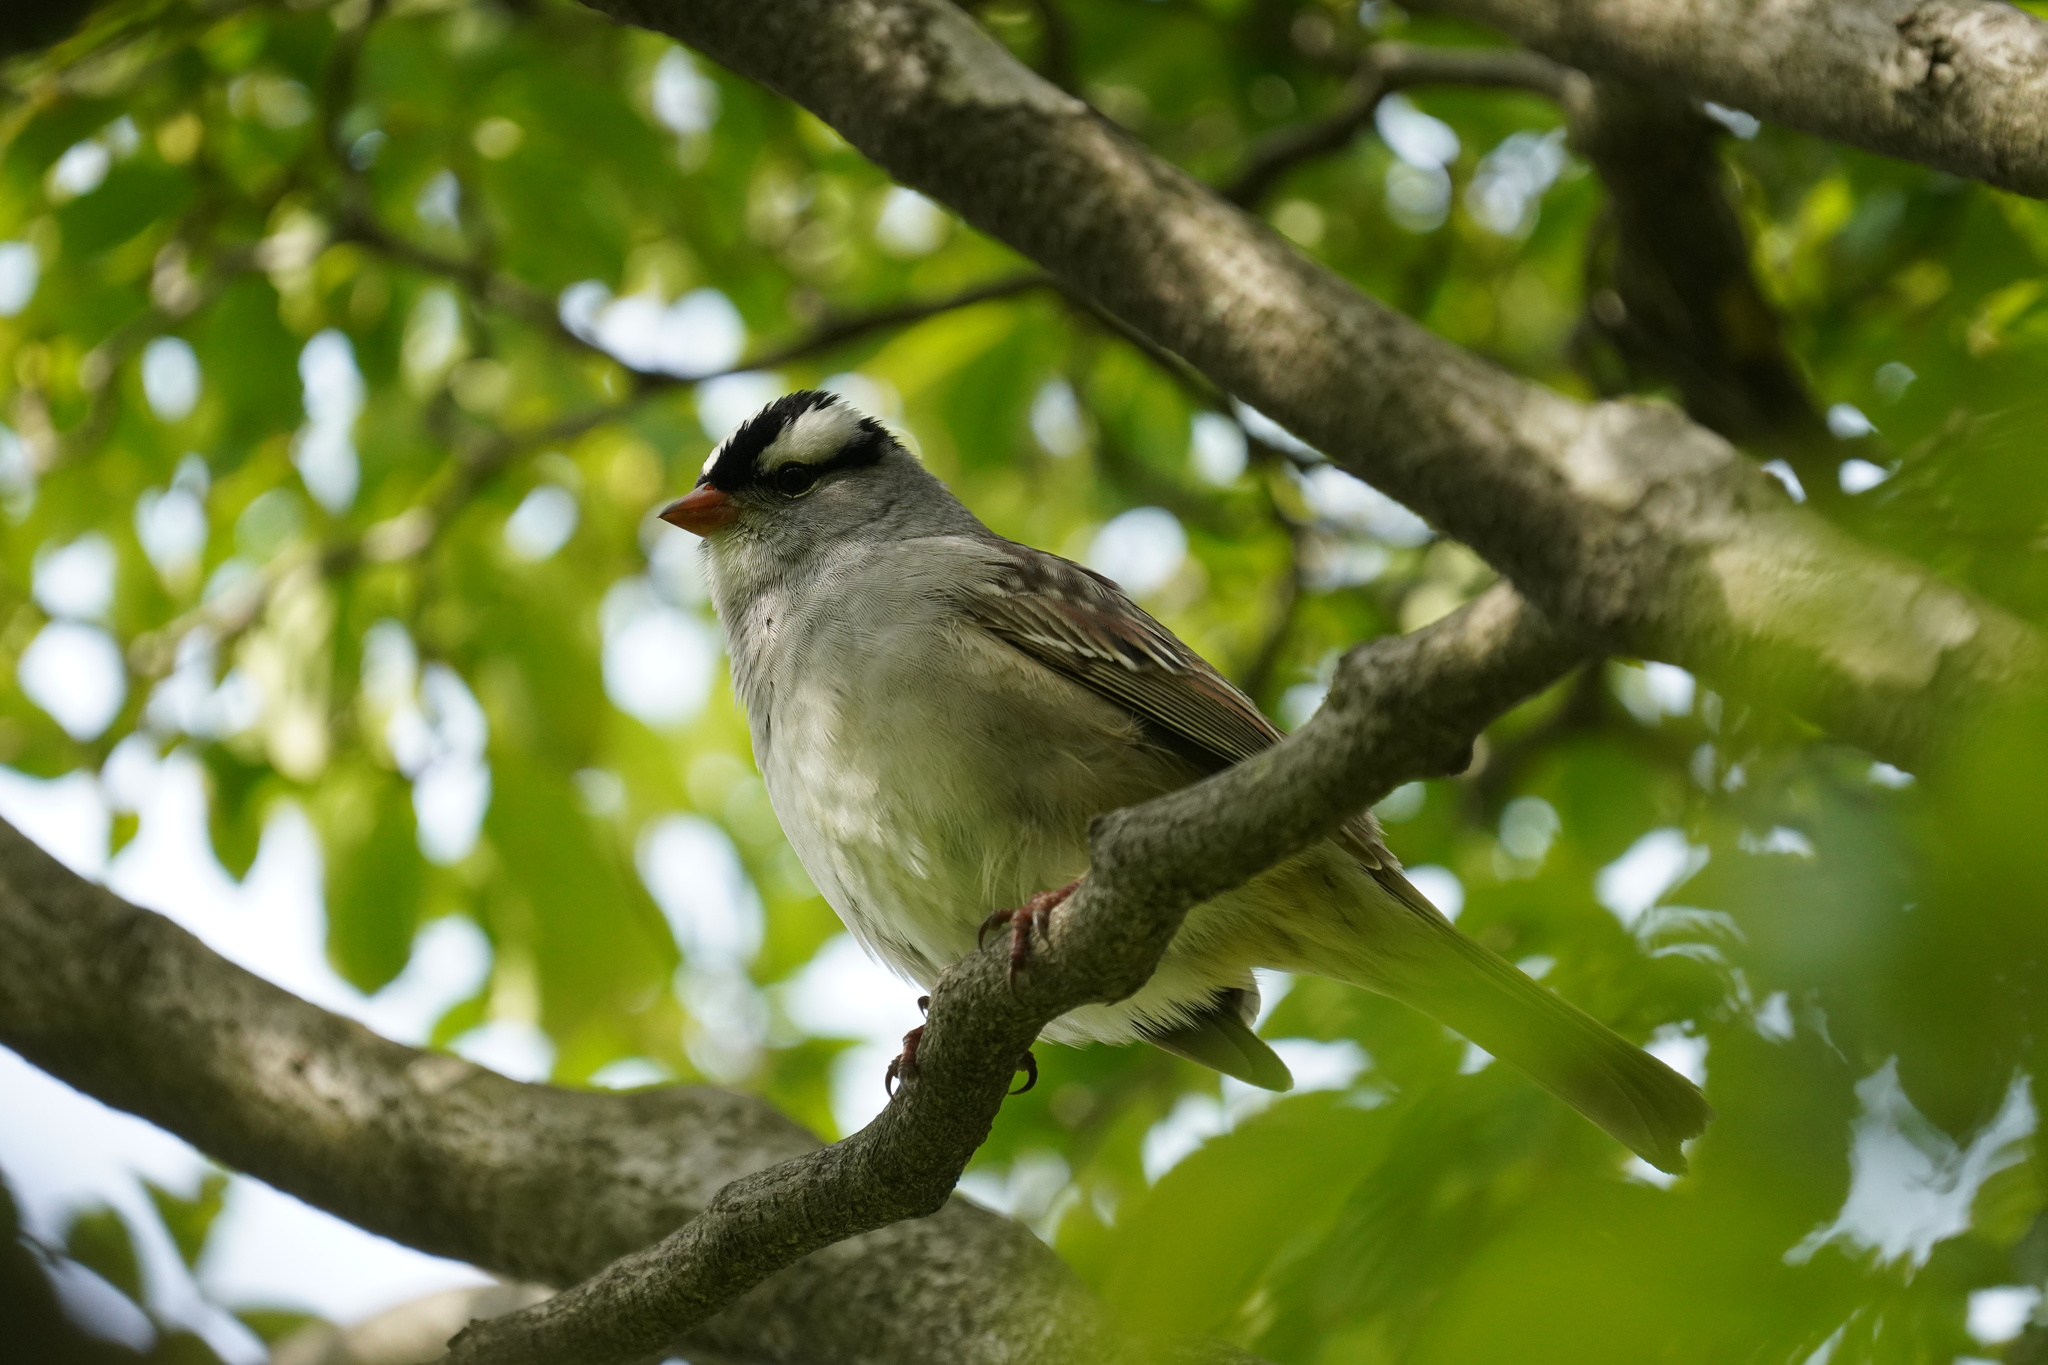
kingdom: Animalia
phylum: Chordata
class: Aves
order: Passeriformes
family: Passerellidae
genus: Zonotrichia
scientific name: Zonotrichia leucophrys
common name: White-crowned sparrow
